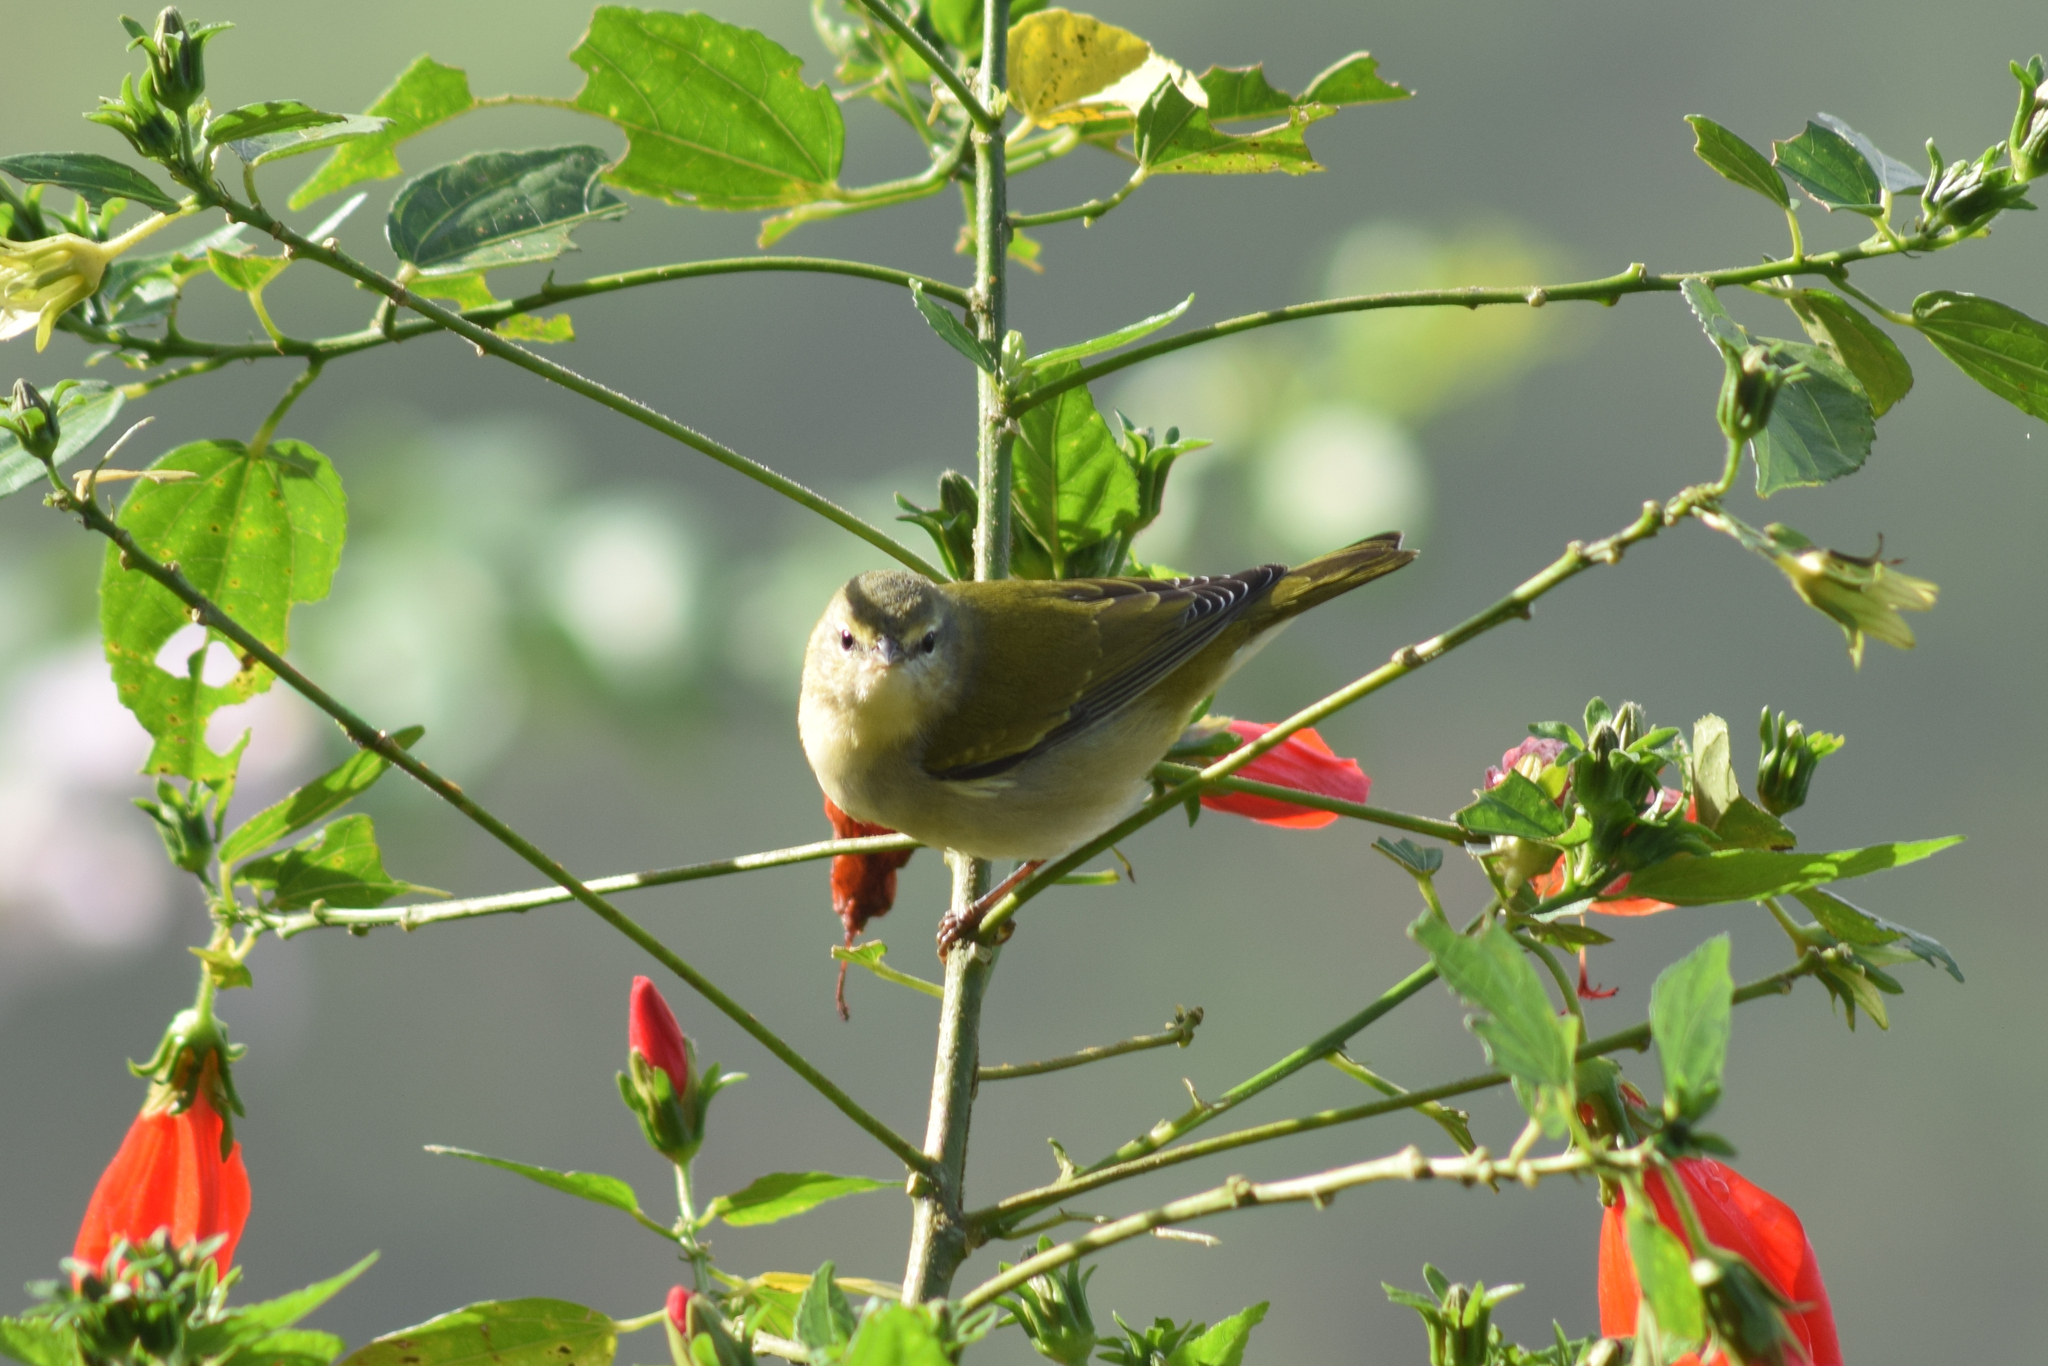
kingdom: Animalia
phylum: Chordata
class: Aves
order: Passeriformes
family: Parulidae
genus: Leiothlypis
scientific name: Leiothlypis peregrina
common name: Tennessee warbler
